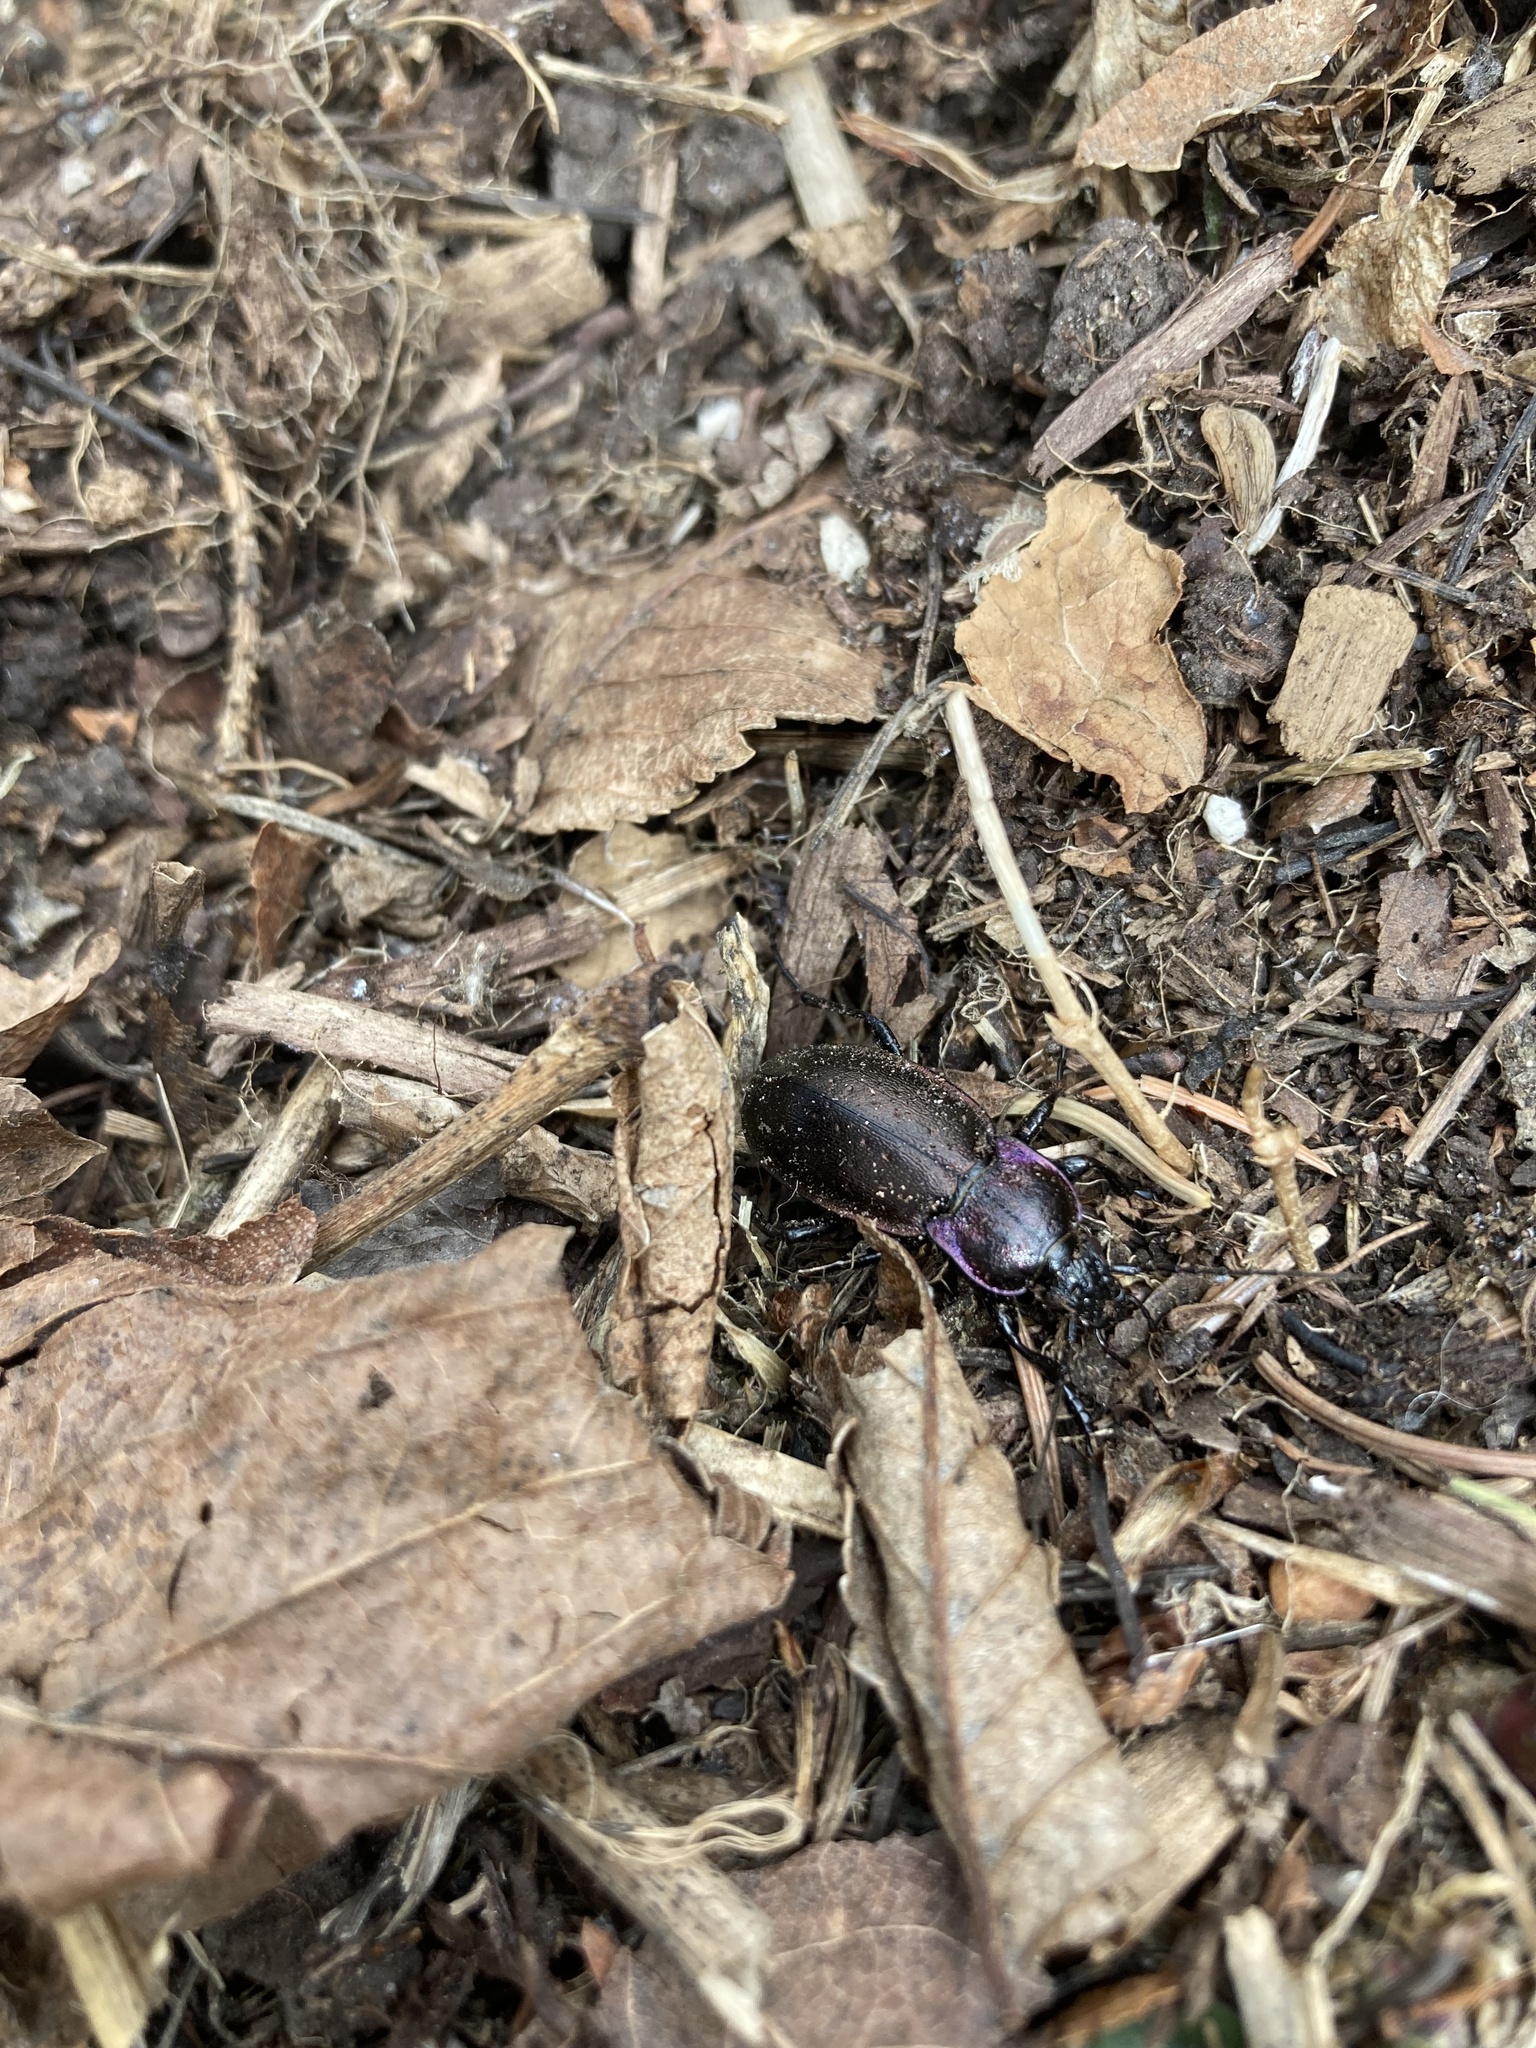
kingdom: Animalia
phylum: Arthropoda
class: Insecta
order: Coleoptera
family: Carabidae
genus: Carabus
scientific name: Carabus nemoralis
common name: European ground beetle
